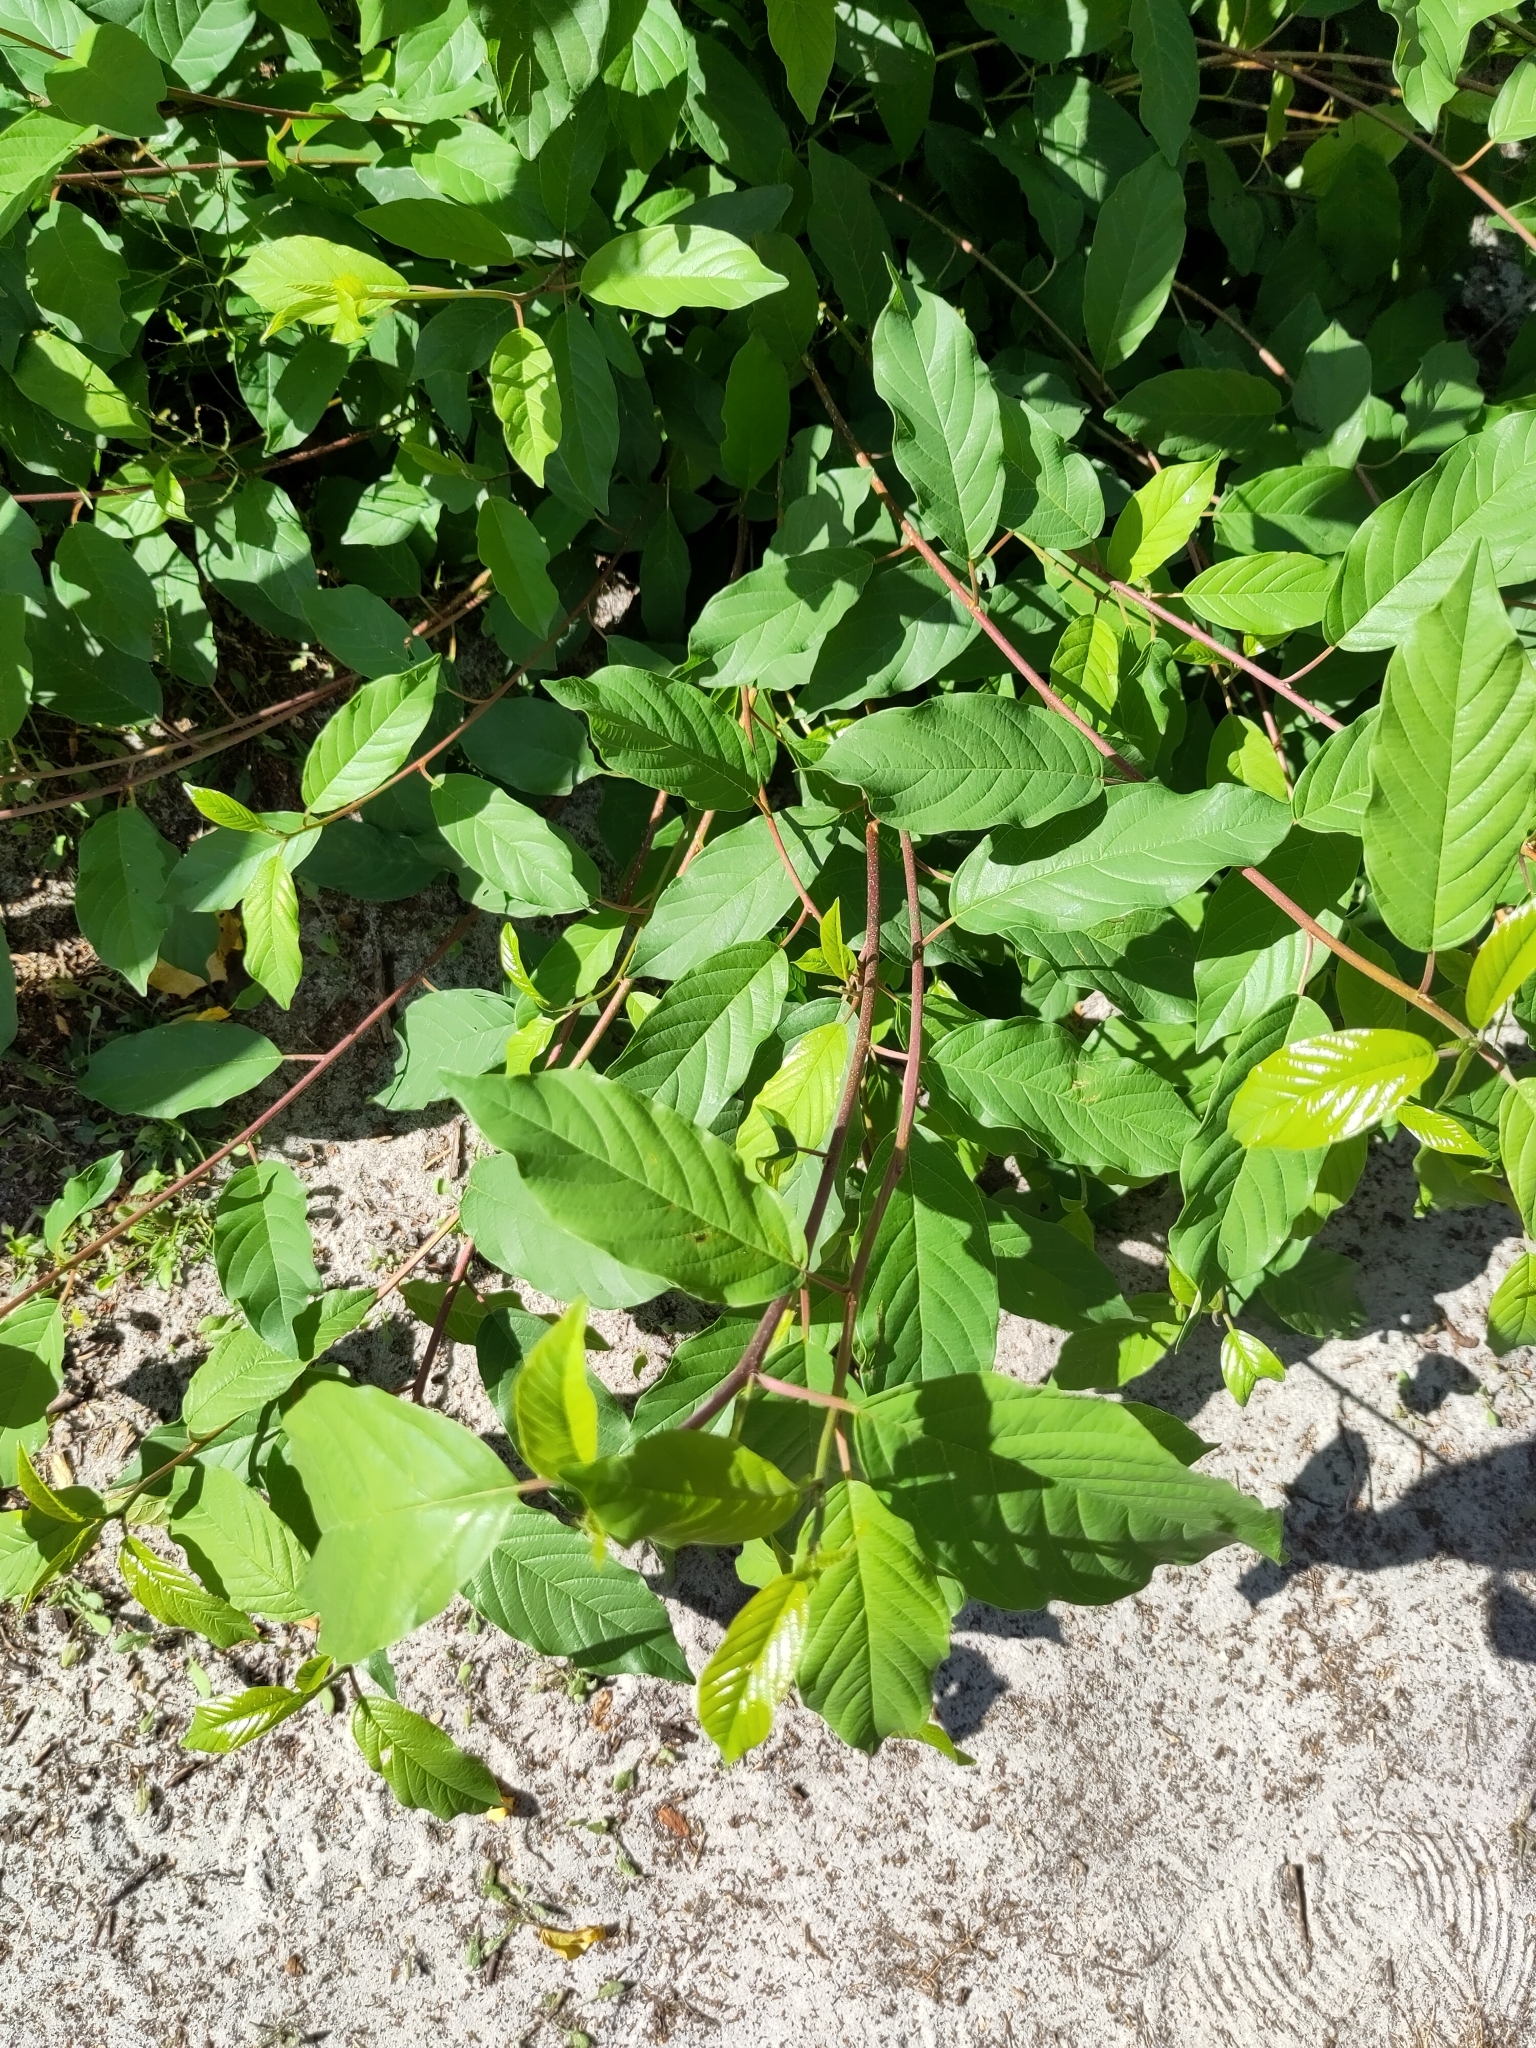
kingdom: Plantae
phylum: Tracheophyta
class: Magnoliopsida
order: Rosales
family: Rhamnaceae
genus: Frangula
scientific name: Frangula alnus
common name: Alder buckthorn
